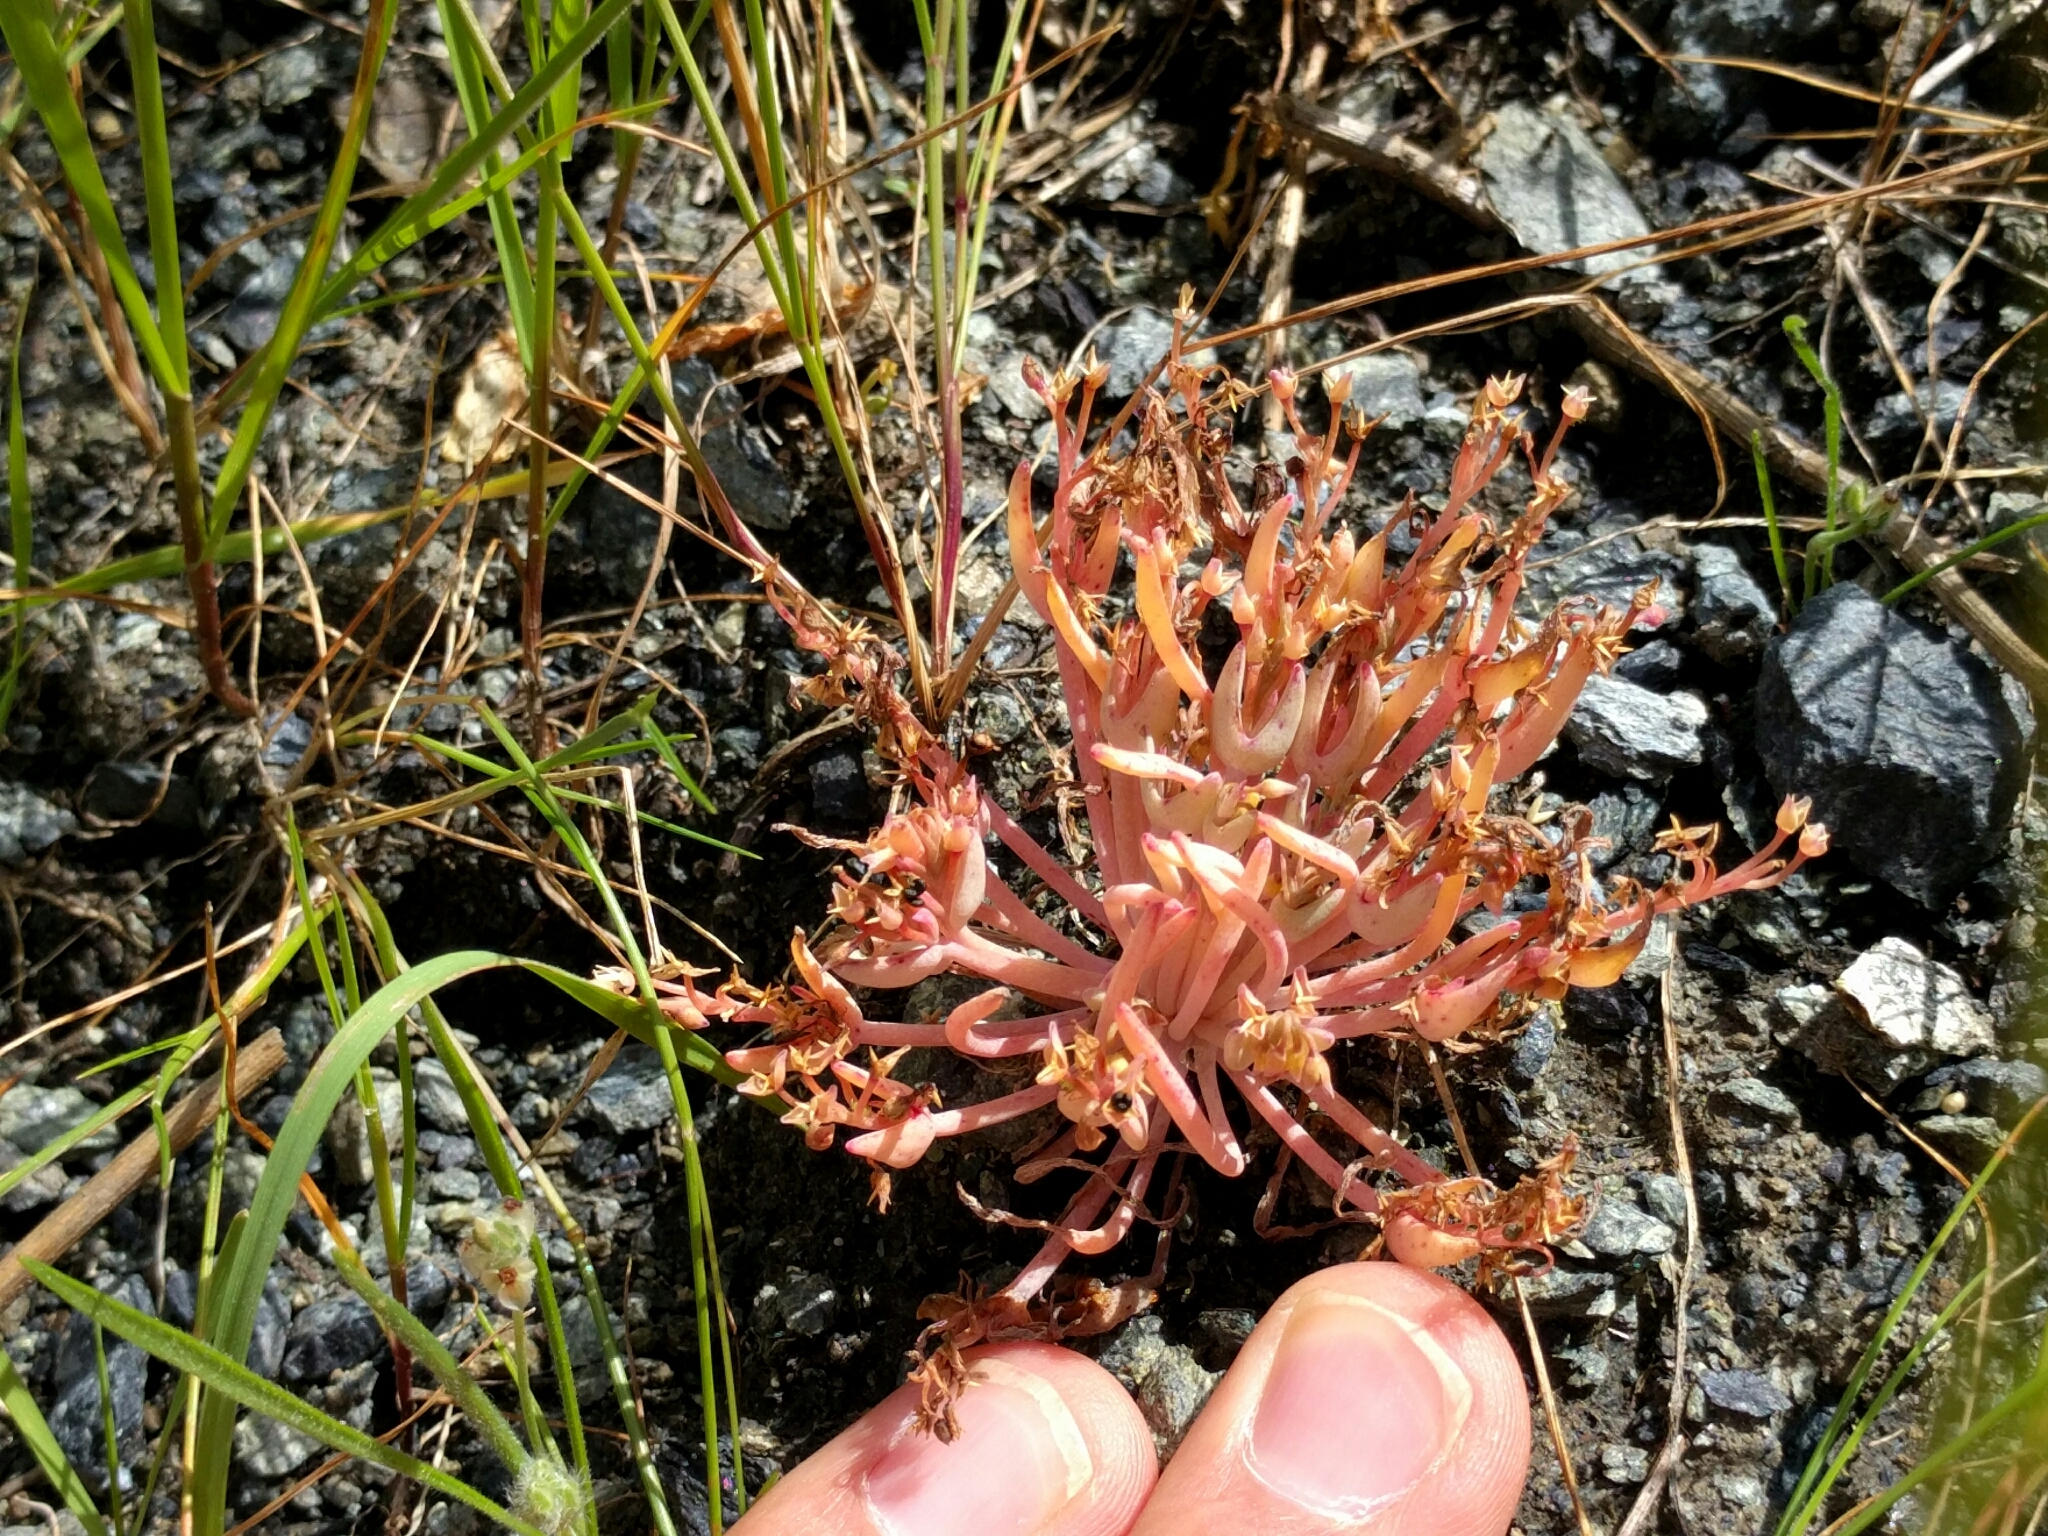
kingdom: Plantae
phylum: Tracheophyta
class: Magnoliopsida
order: Caryophyllales
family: Montiaceae
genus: Claytonia
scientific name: Claytonia exigua
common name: Pale spring beauty
